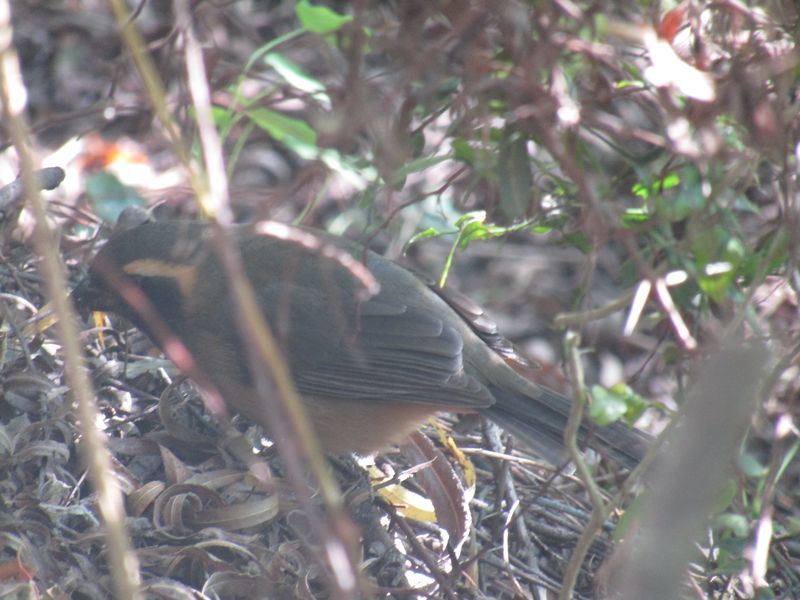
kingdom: Animalia
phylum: Chordata
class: Aves
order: Passeriformes
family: Thraupidae
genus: Saltator
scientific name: Saltator aurantiirostris
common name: Golden-billed saltator
